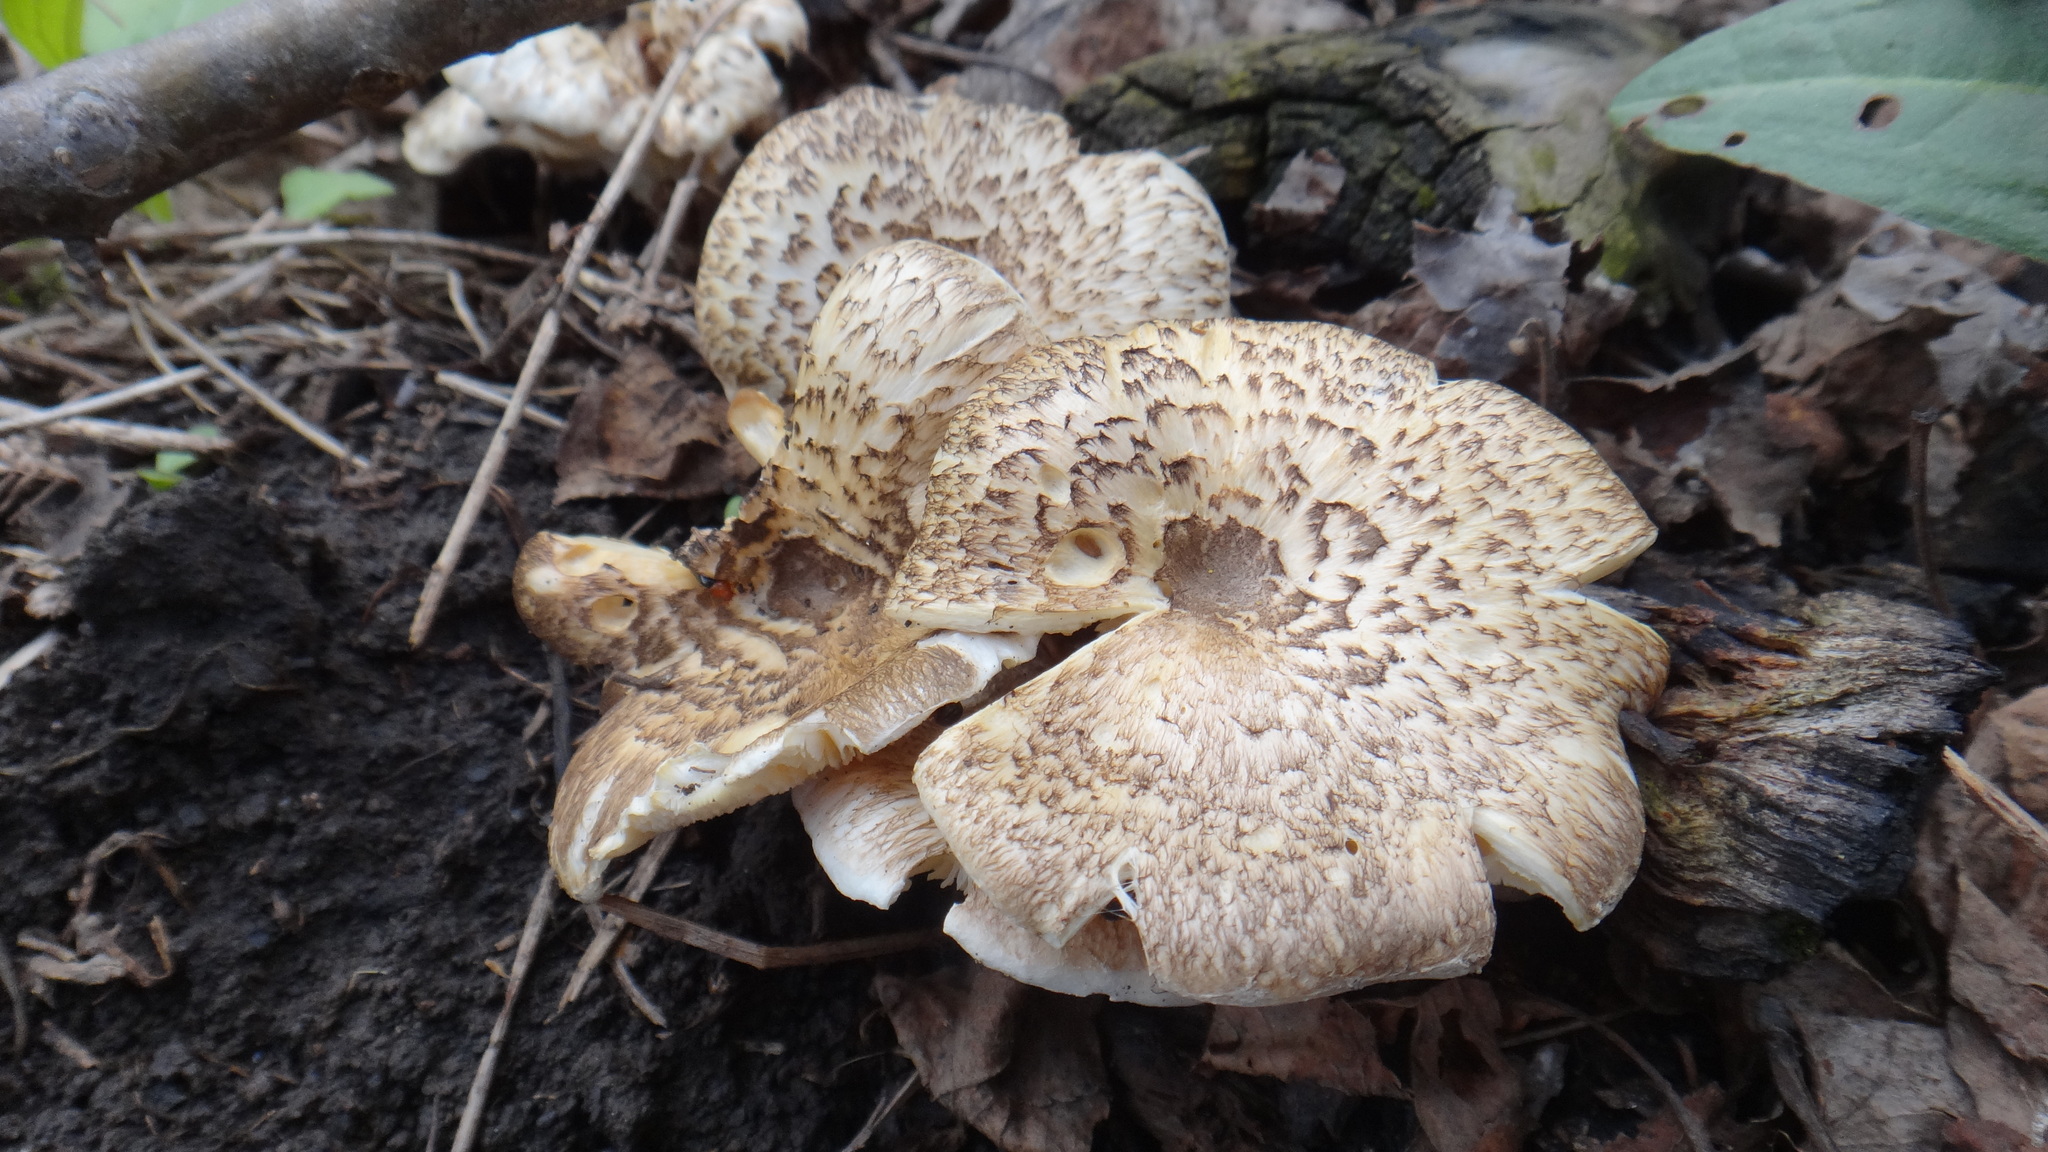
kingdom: Fungi
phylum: Basidiomycota
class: Agaricomycetes
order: Polyporales
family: Polyporaceae
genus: Lentinus
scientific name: Lentinus tigrinus
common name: Tiger sawgill
